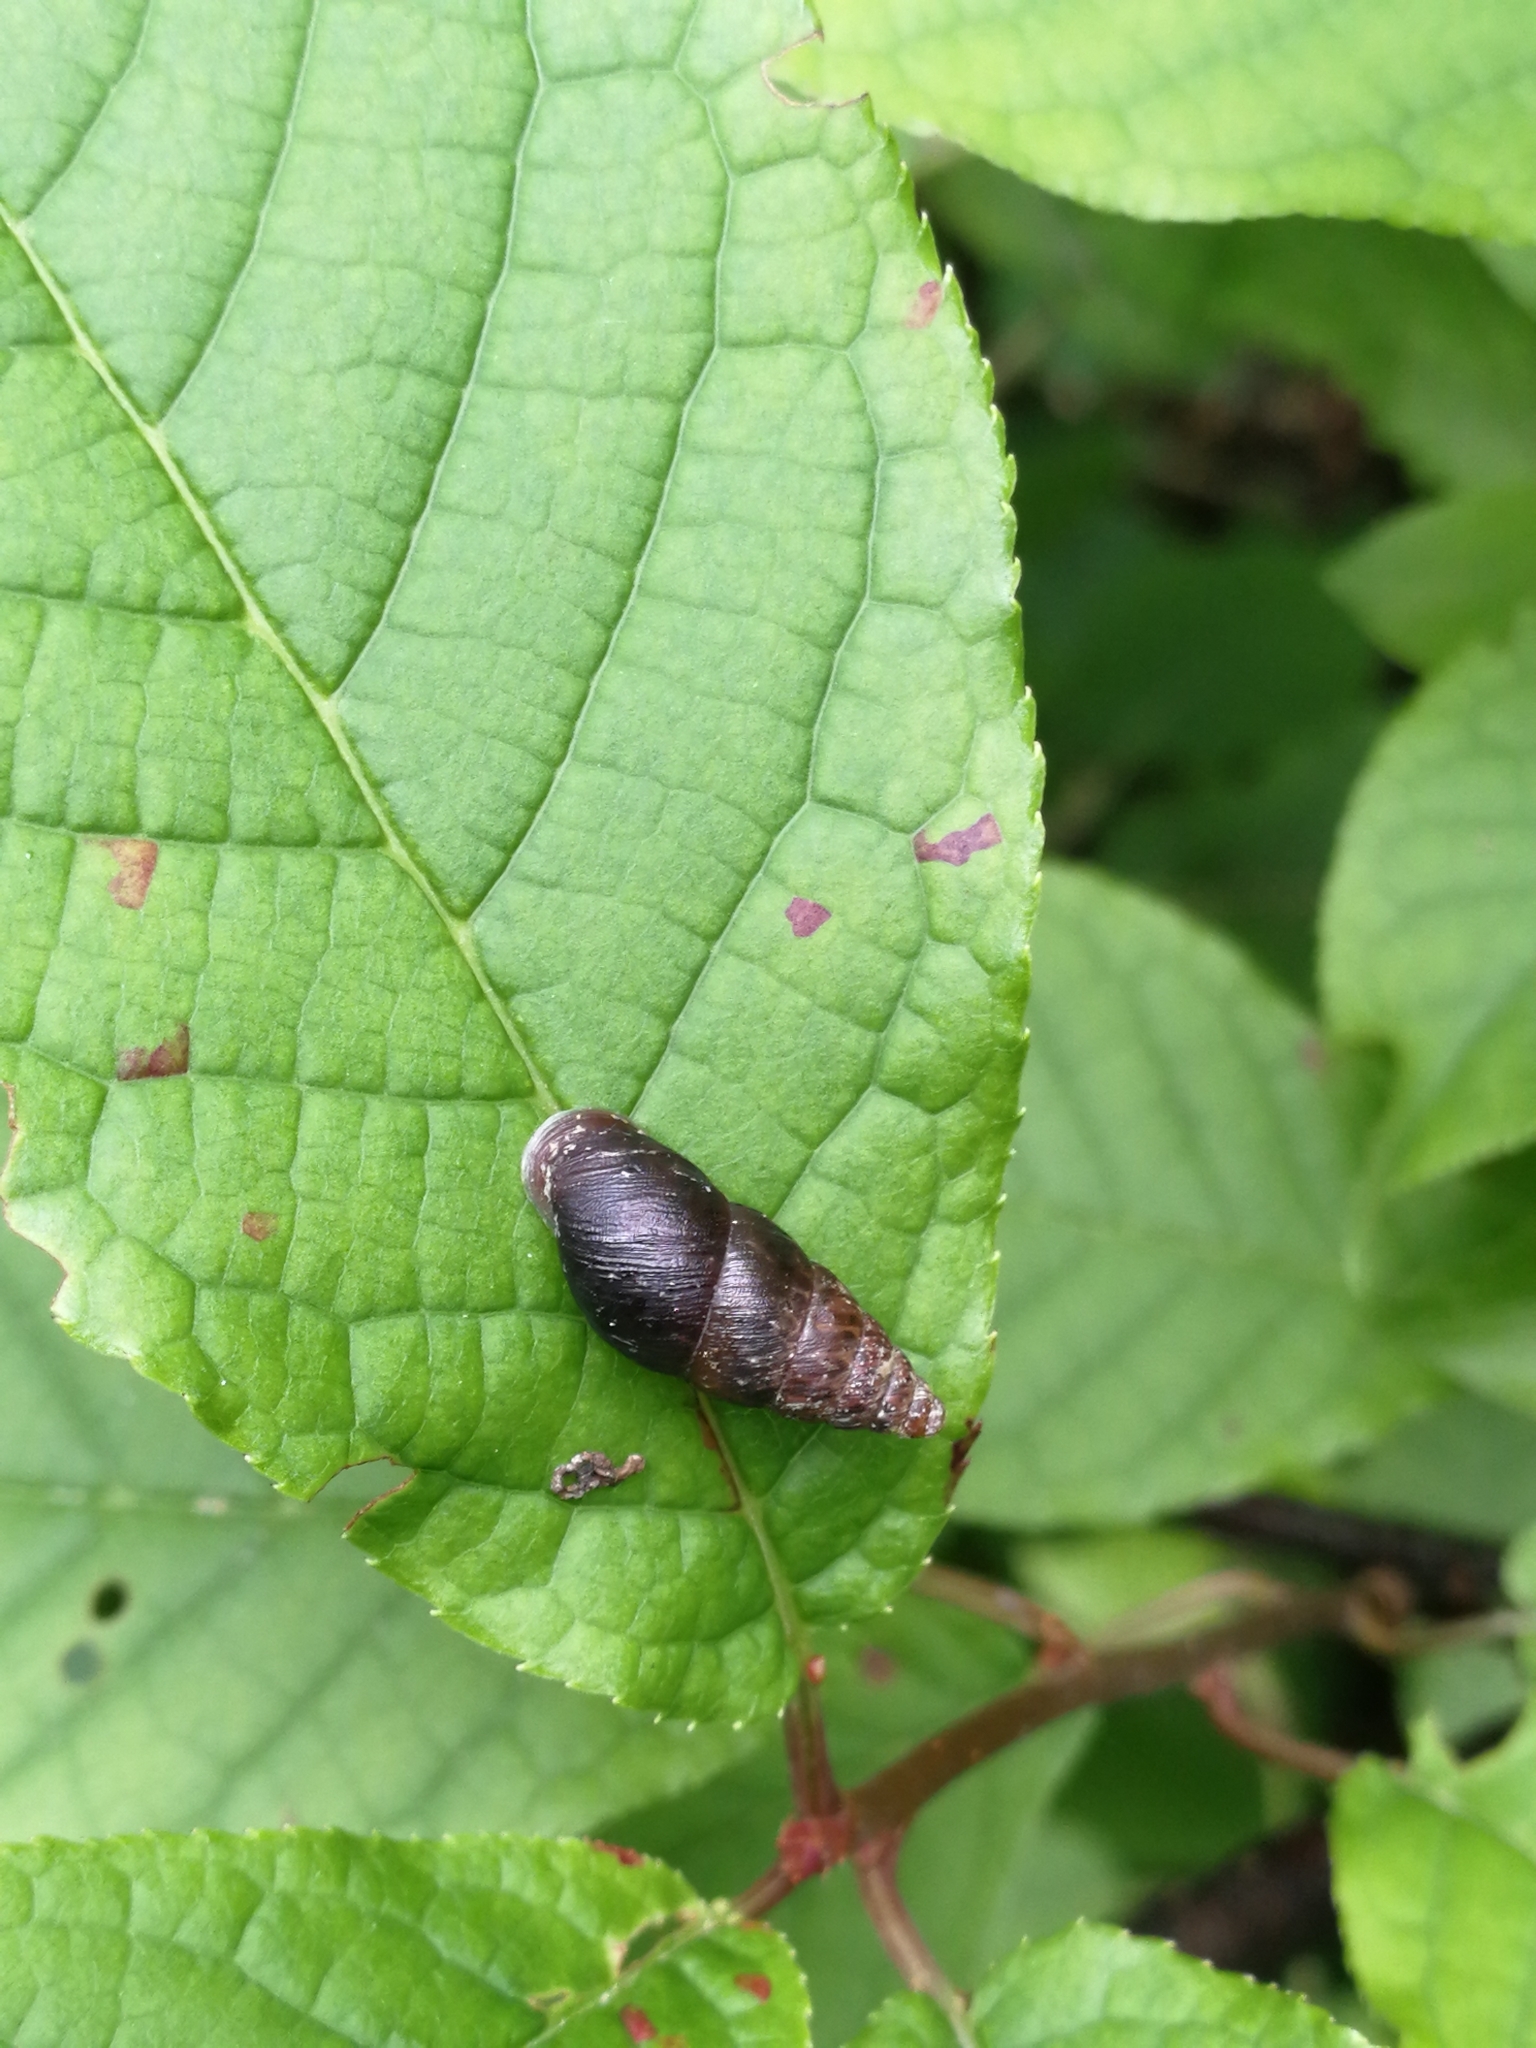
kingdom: Animalia
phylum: Mollusca
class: Gastropoda
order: Stylommatophora
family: Enidae
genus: Ena
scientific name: Ena montana
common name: Mountain bulin
